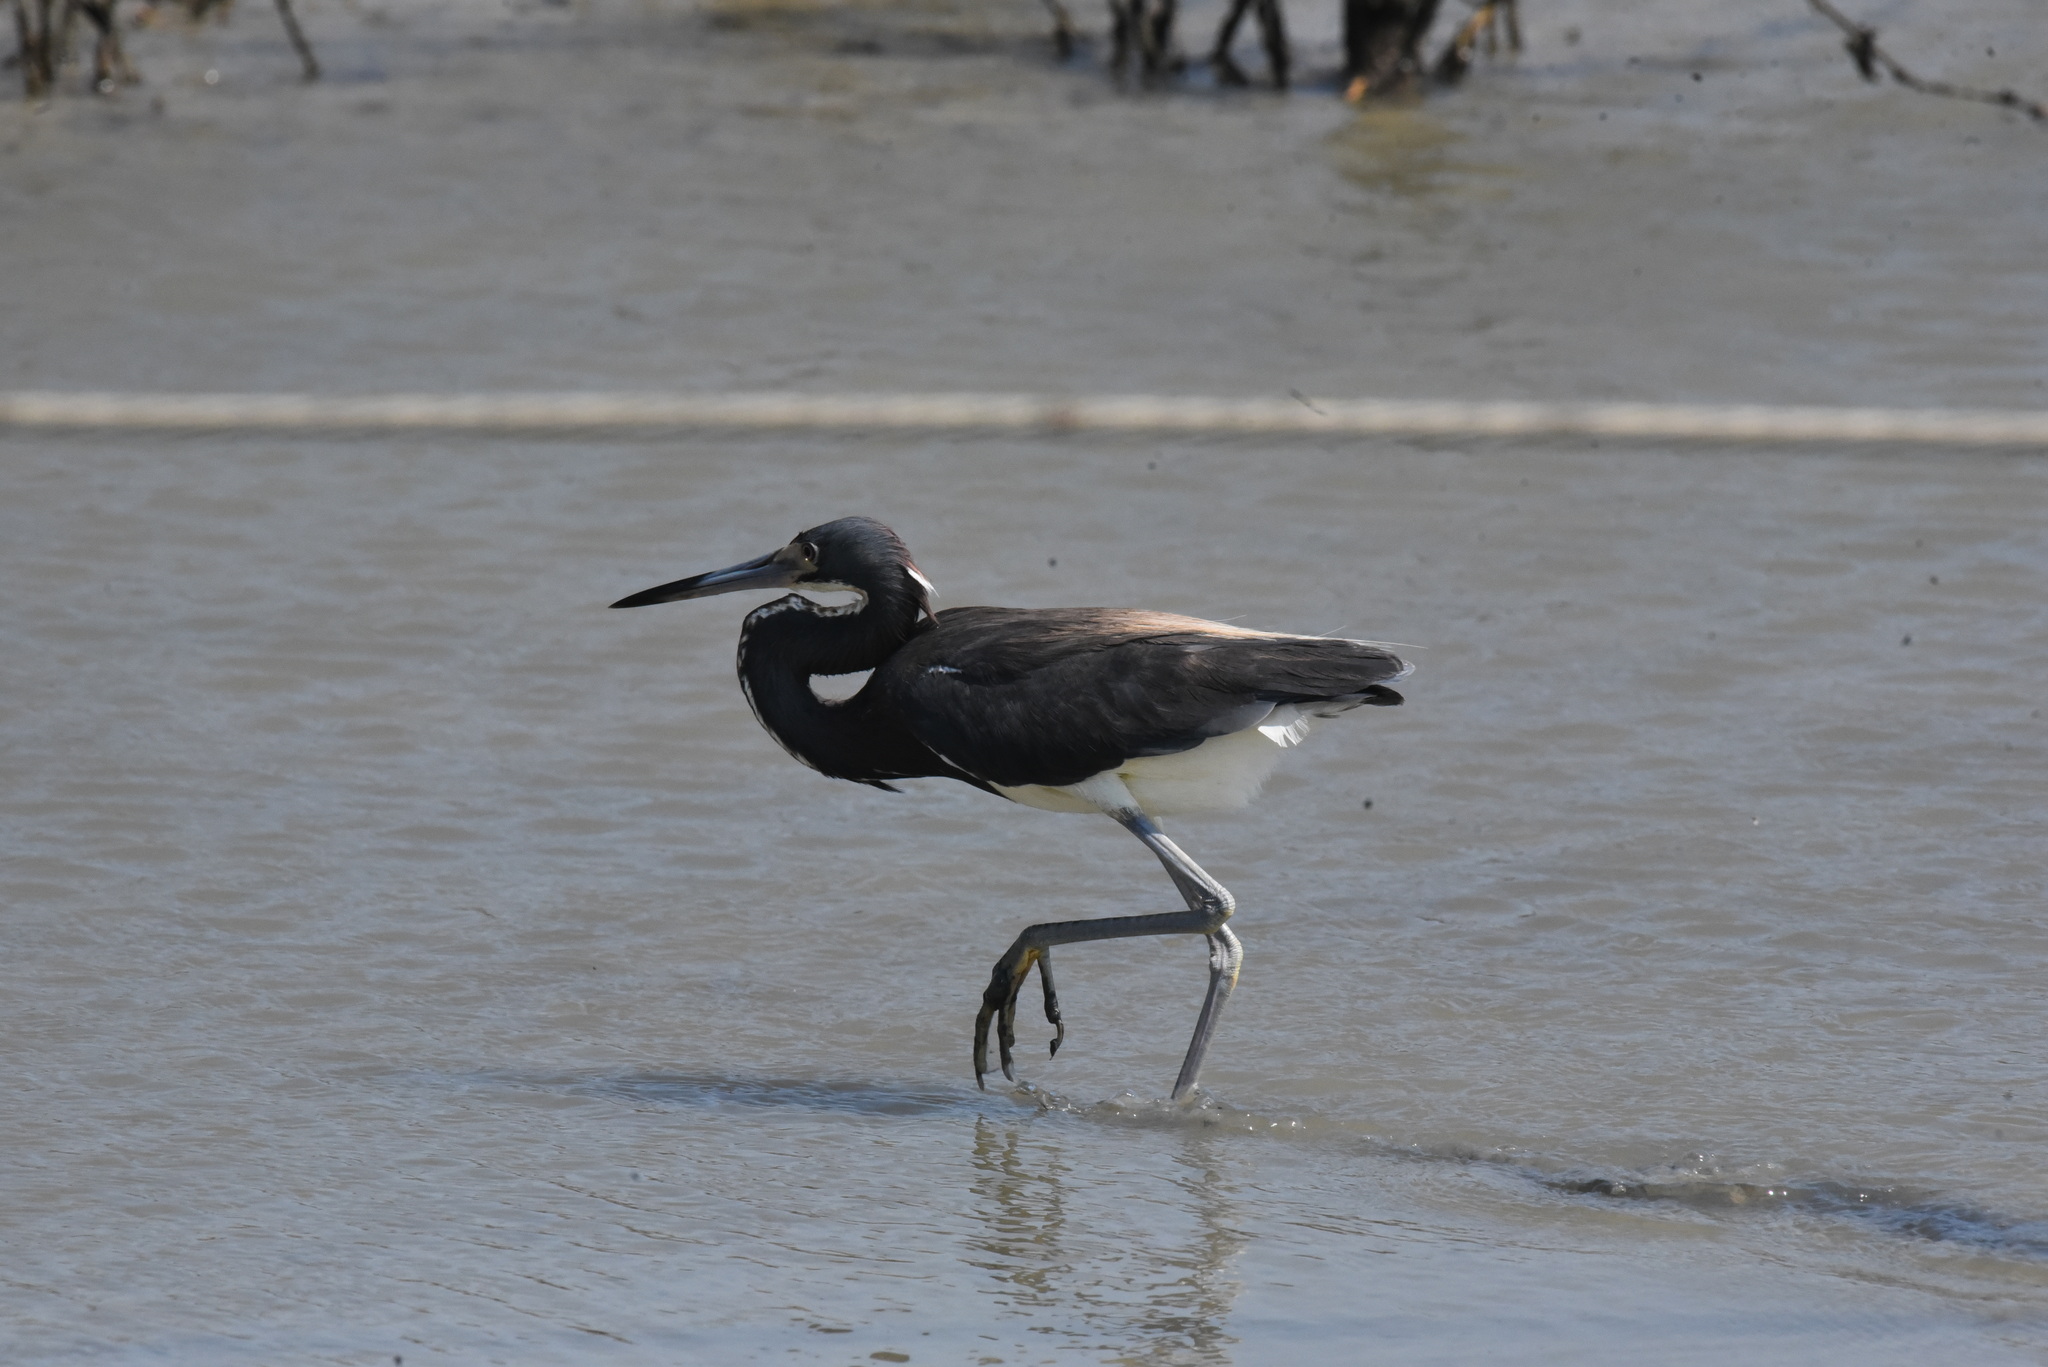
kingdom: Animalia
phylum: Chordata
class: Aves
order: Pelecaniformes
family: Ardeidae
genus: Egretta
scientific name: Egretta tricolor
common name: Tricolored heron
